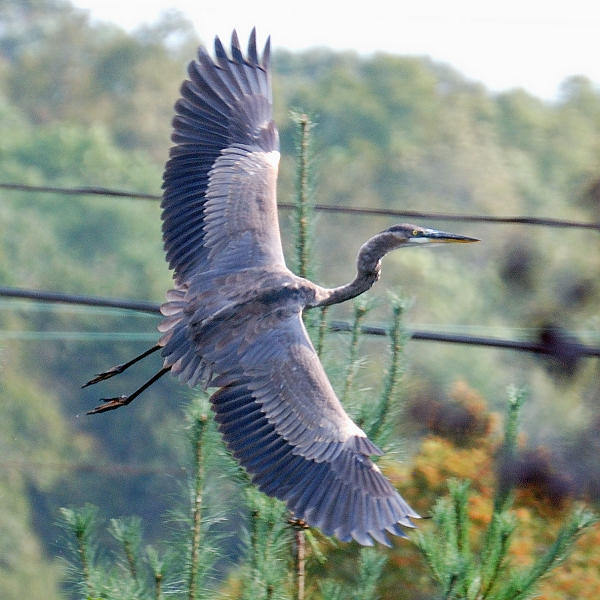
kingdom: Animalia
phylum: Chordata
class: Aves
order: Pelecaniformes
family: Ardeidae
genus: Ardea
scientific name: Ardea herodias
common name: Great blue heron
